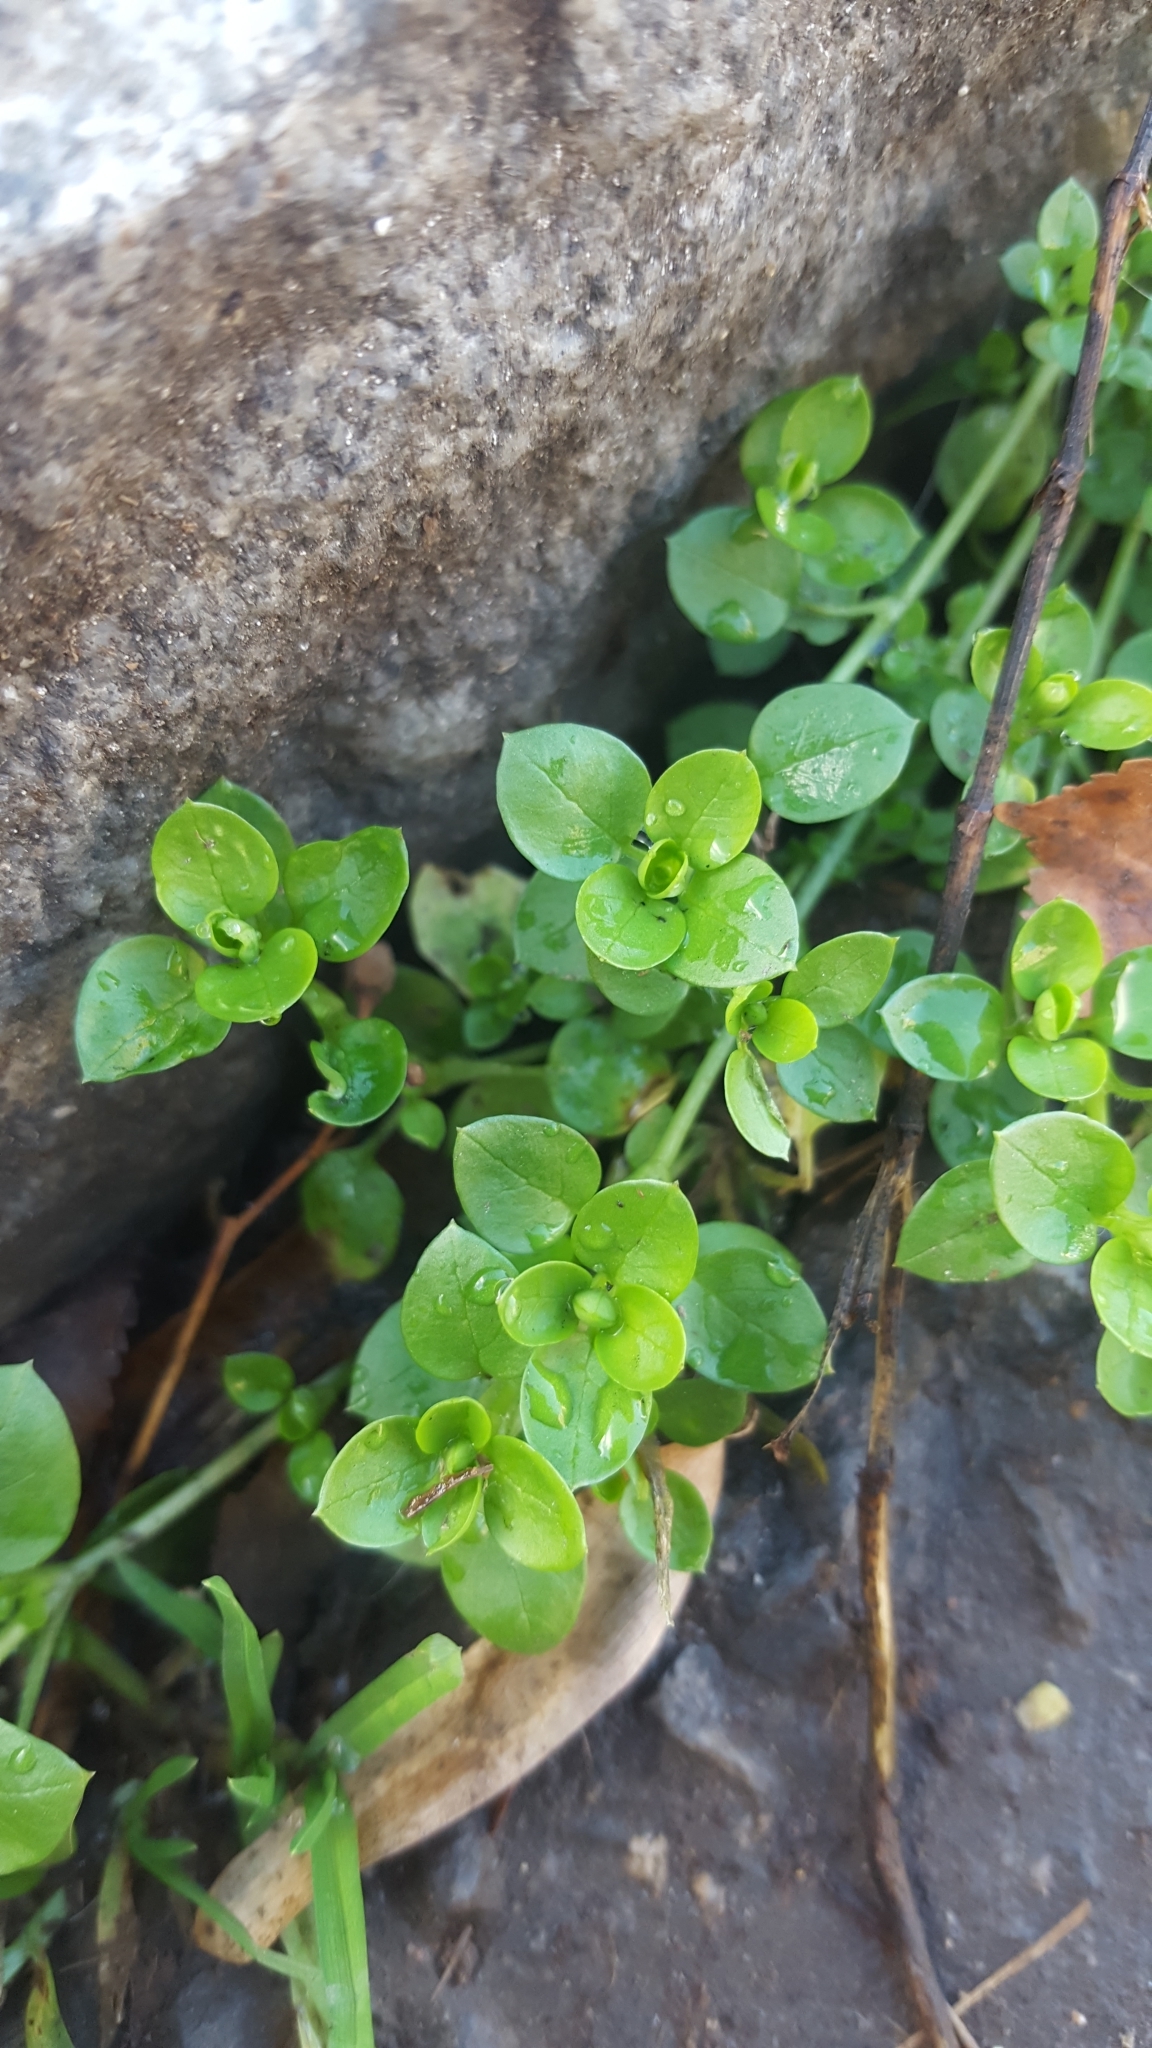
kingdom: Plantae
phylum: Tracheophyta
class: Magnoliopsida
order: Caryophyllales
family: Caryophyllaceae
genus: Stellaria
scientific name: Stellaria media
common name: Common chickweed
